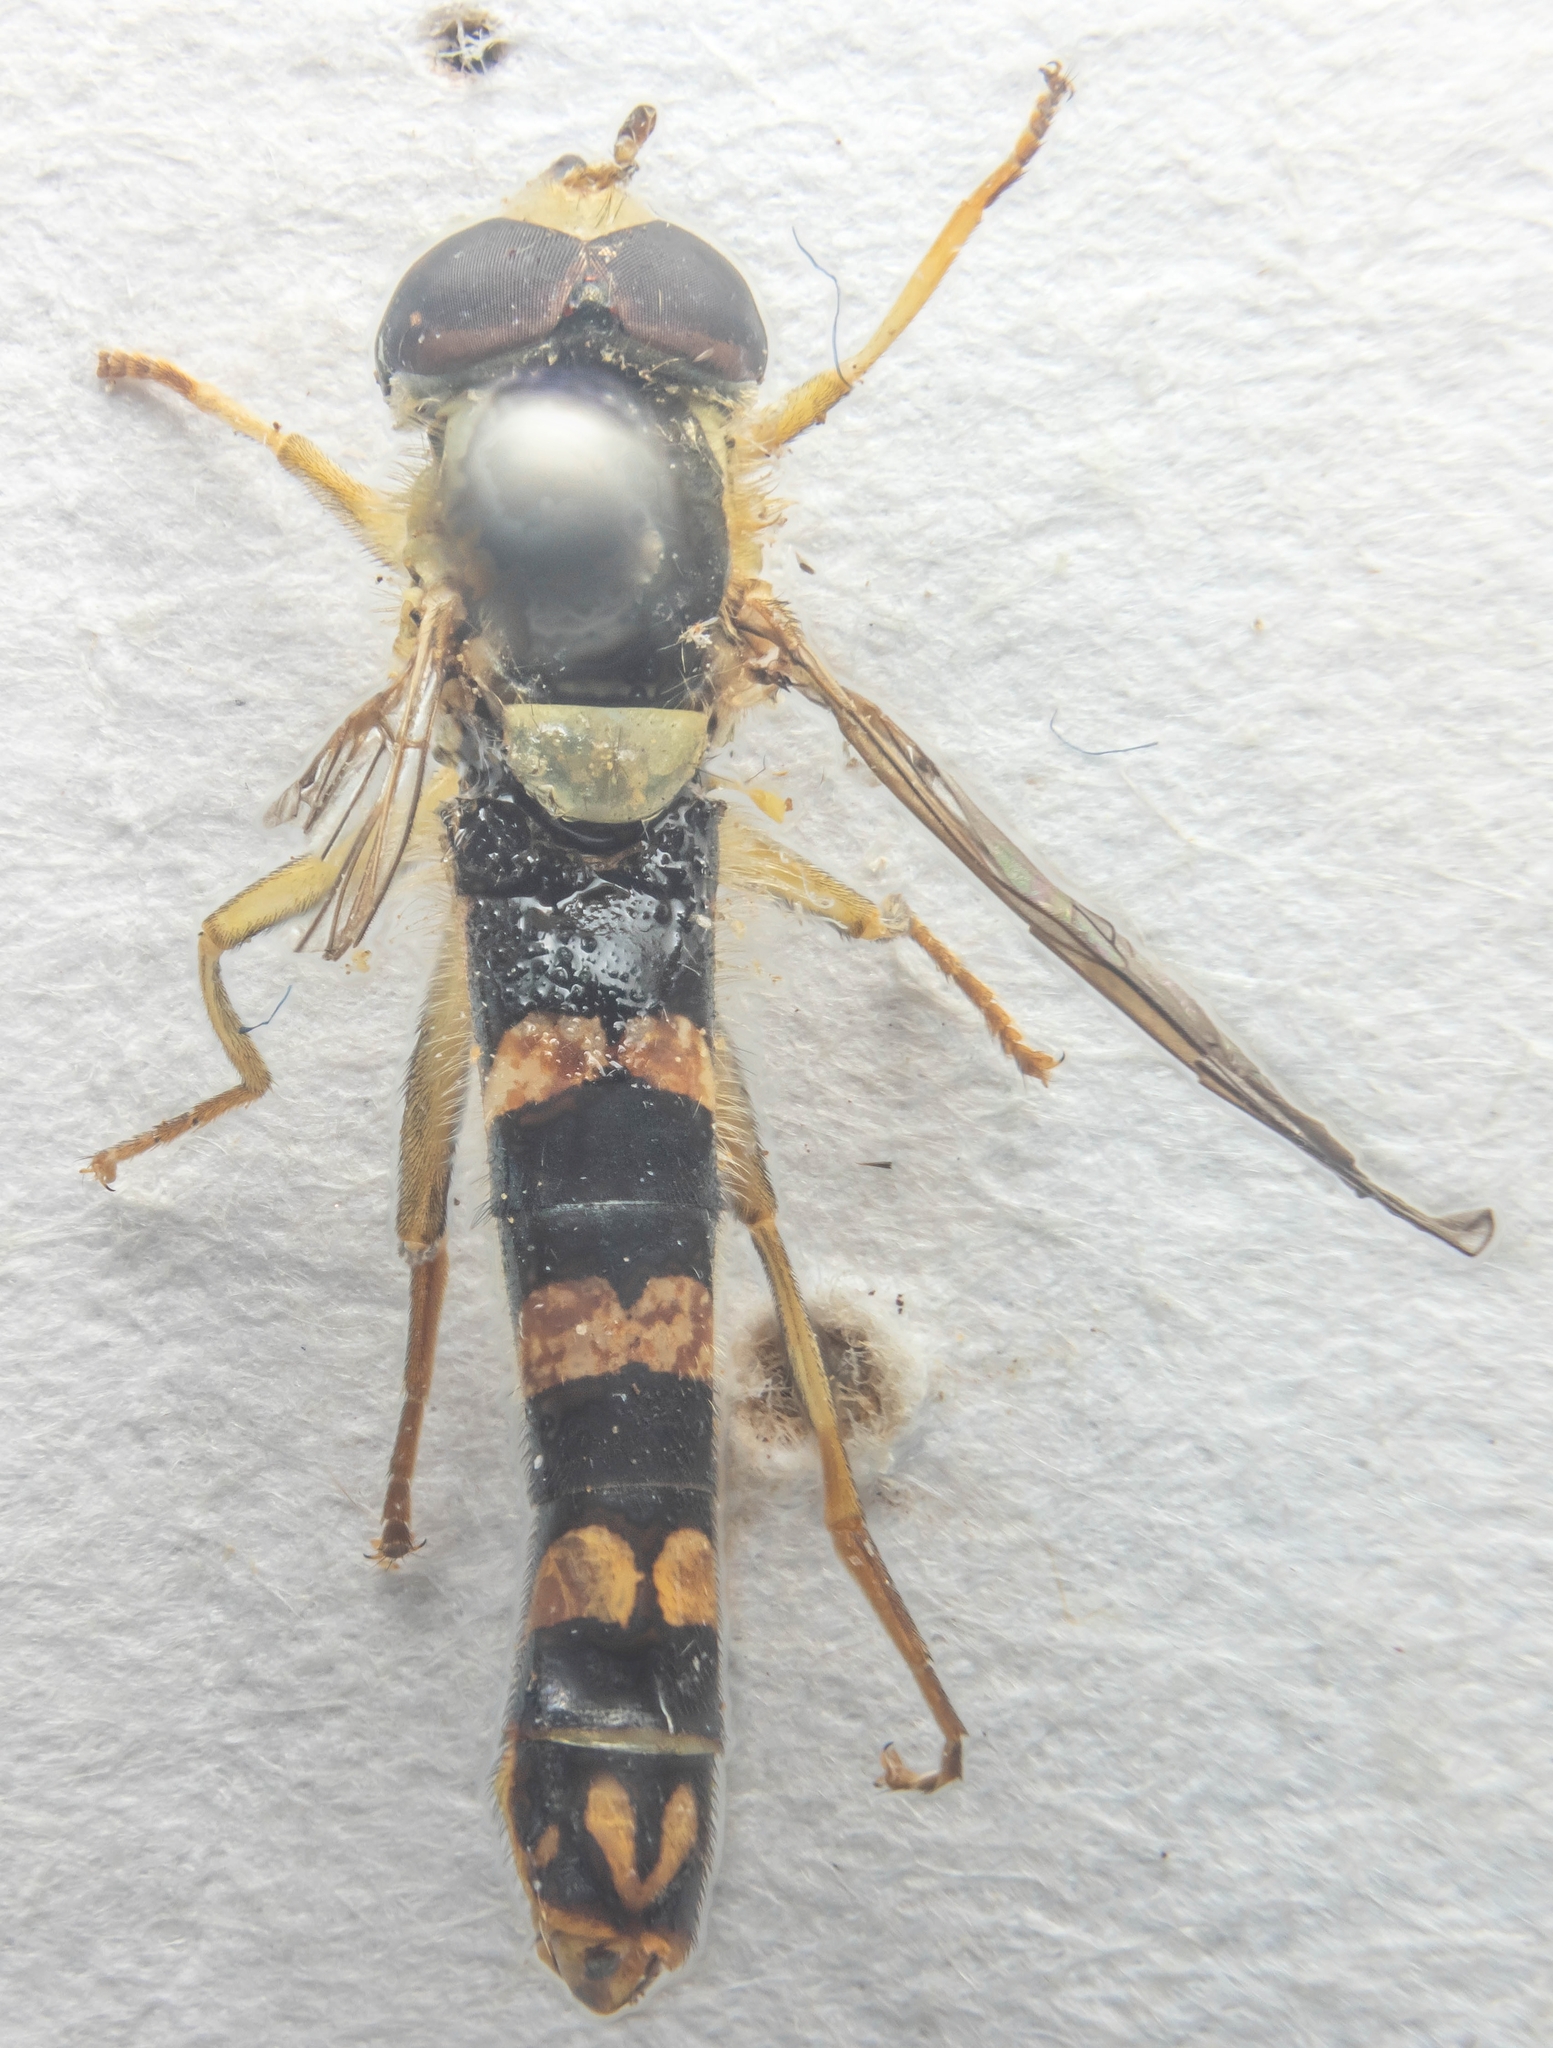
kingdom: Animalia
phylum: Arthropoda
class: Insecta
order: Diptera
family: Syrphidae
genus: Sphaerophoria
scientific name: Sphaerophoria scripta
